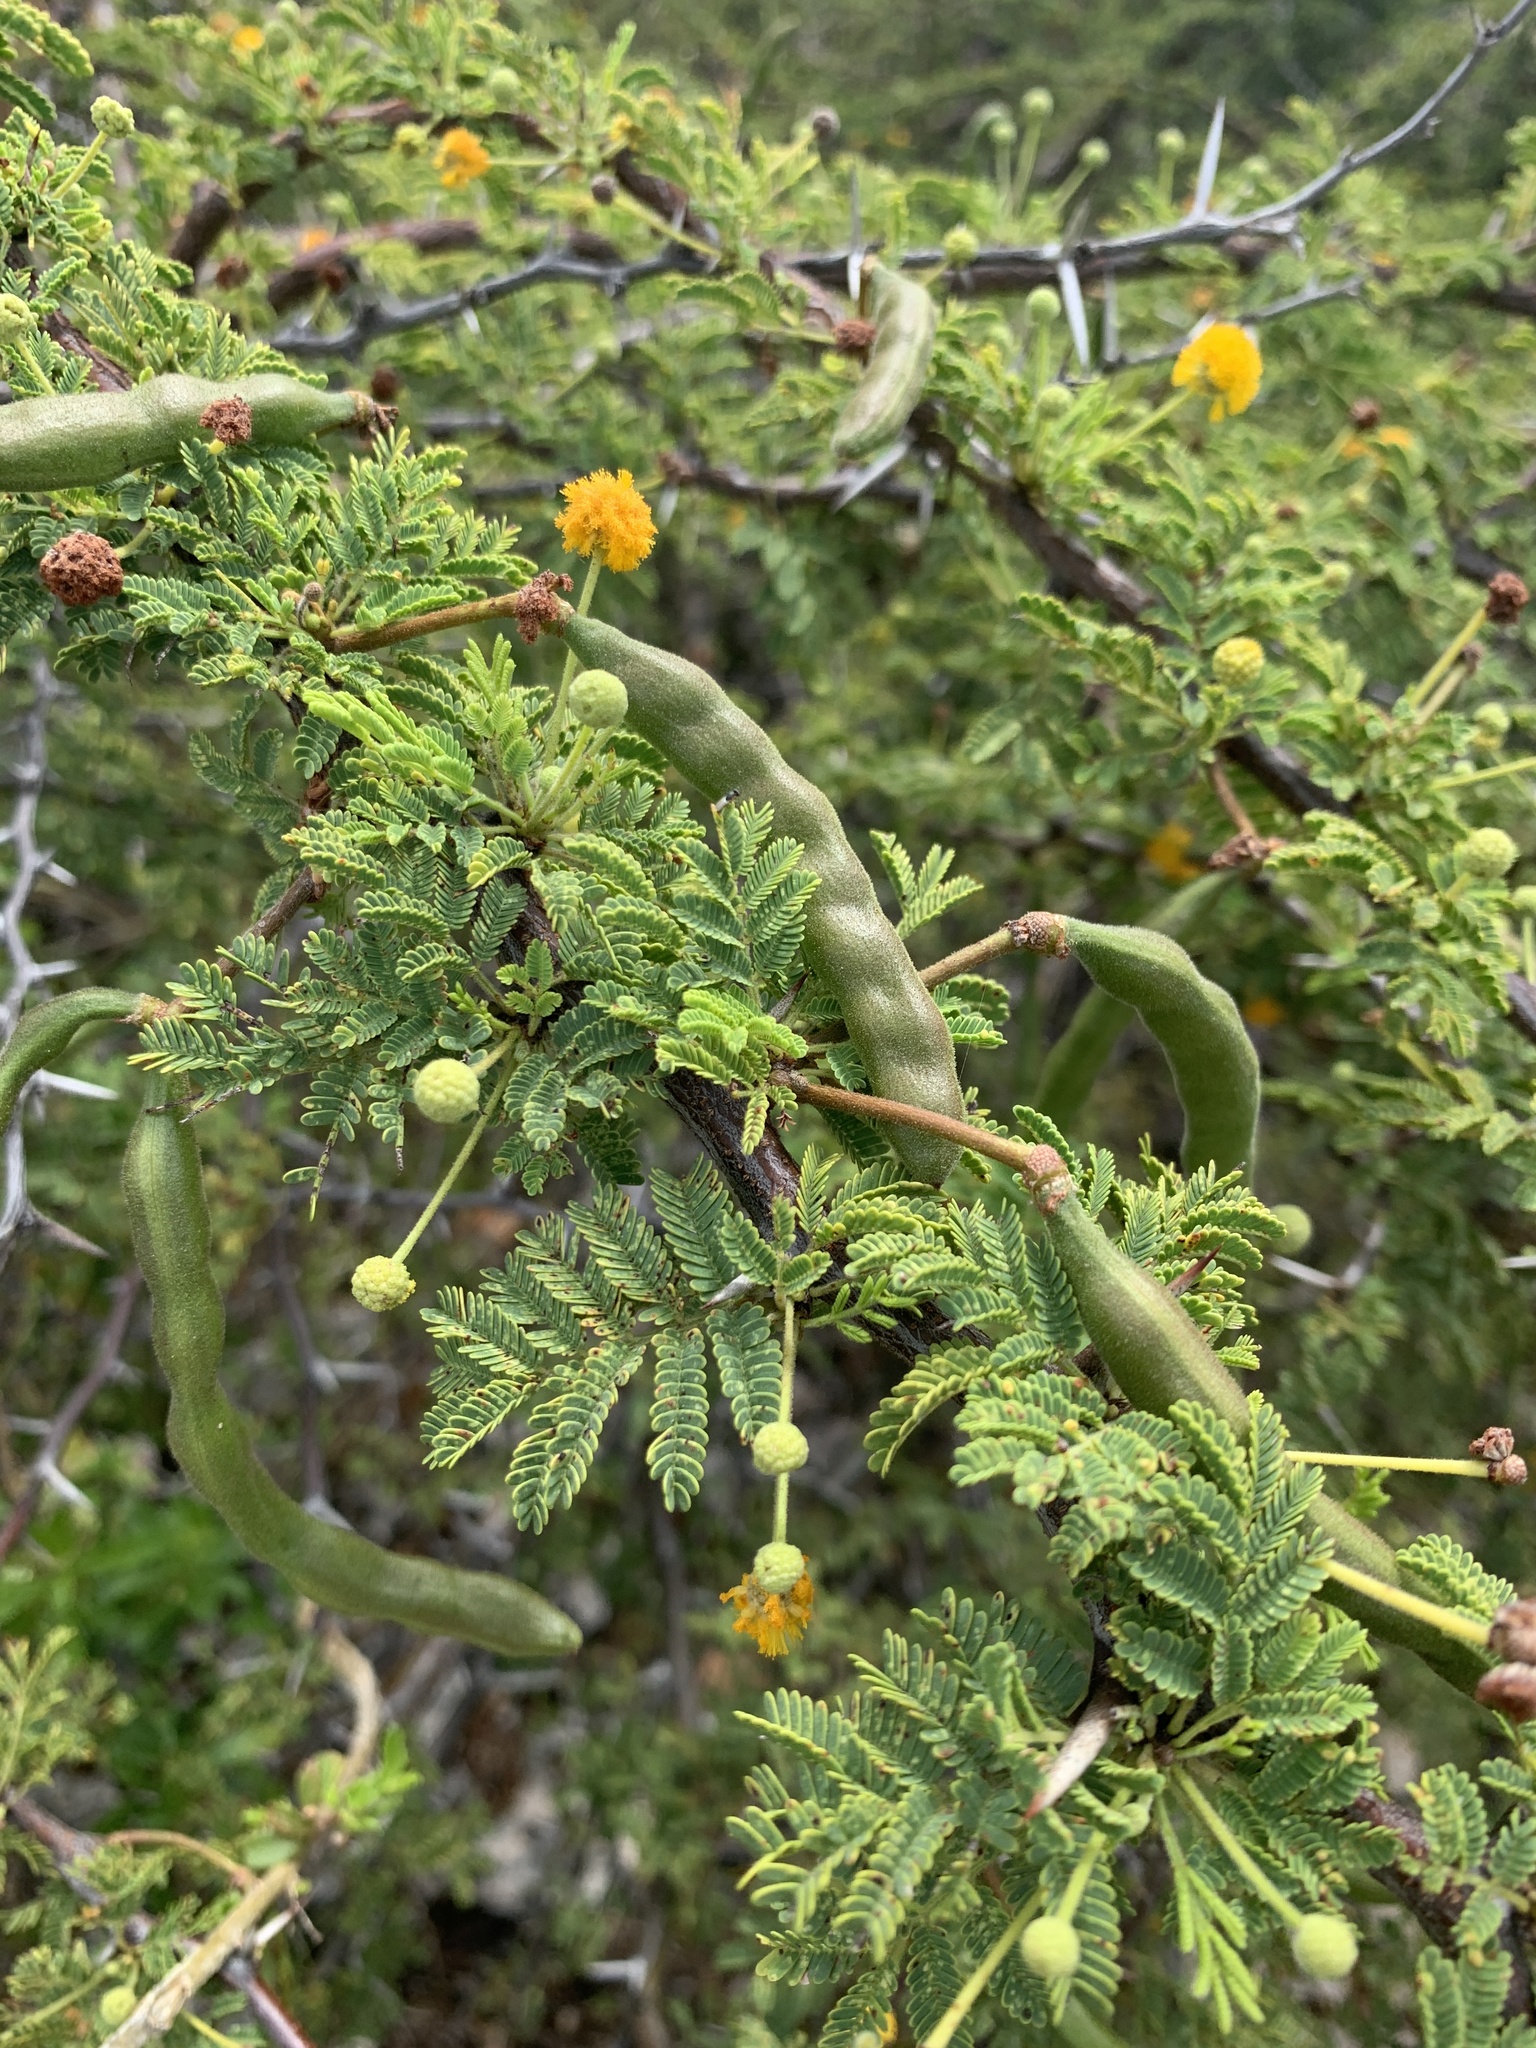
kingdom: Plantae
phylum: Tracheophyta
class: Magnoliopsida
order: Fabales
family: Fabaceae
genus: Vachellia
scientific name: Vachellia tortuosa
